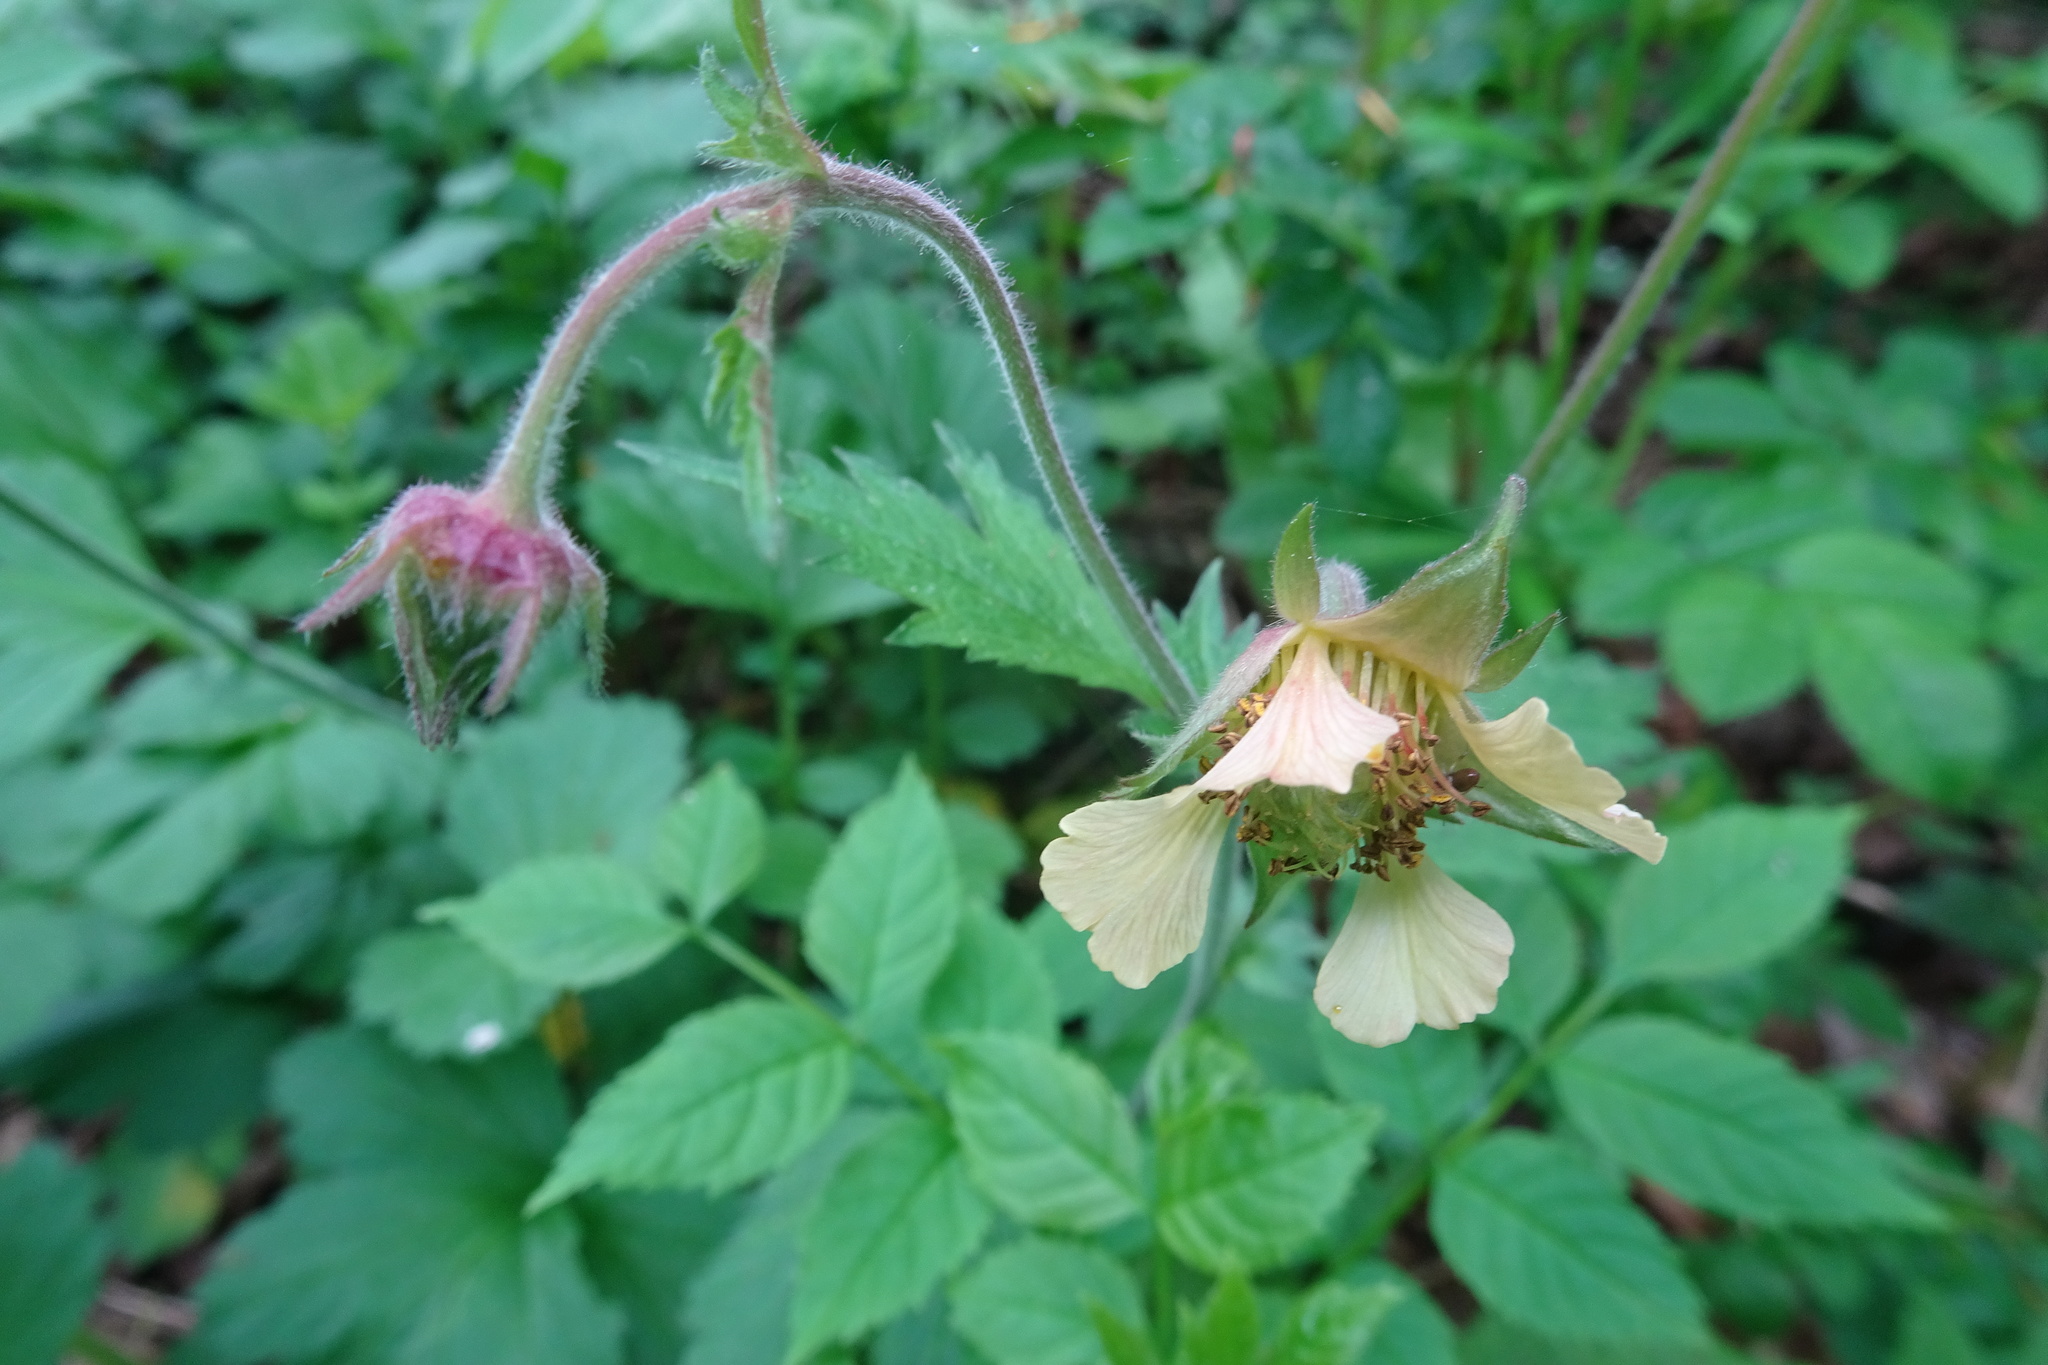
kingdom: Plantae
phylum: Tracheophyta
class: Magnoliopsida
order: Rosales
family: Rosaceae
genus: Geum
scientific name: Geum intermedium
